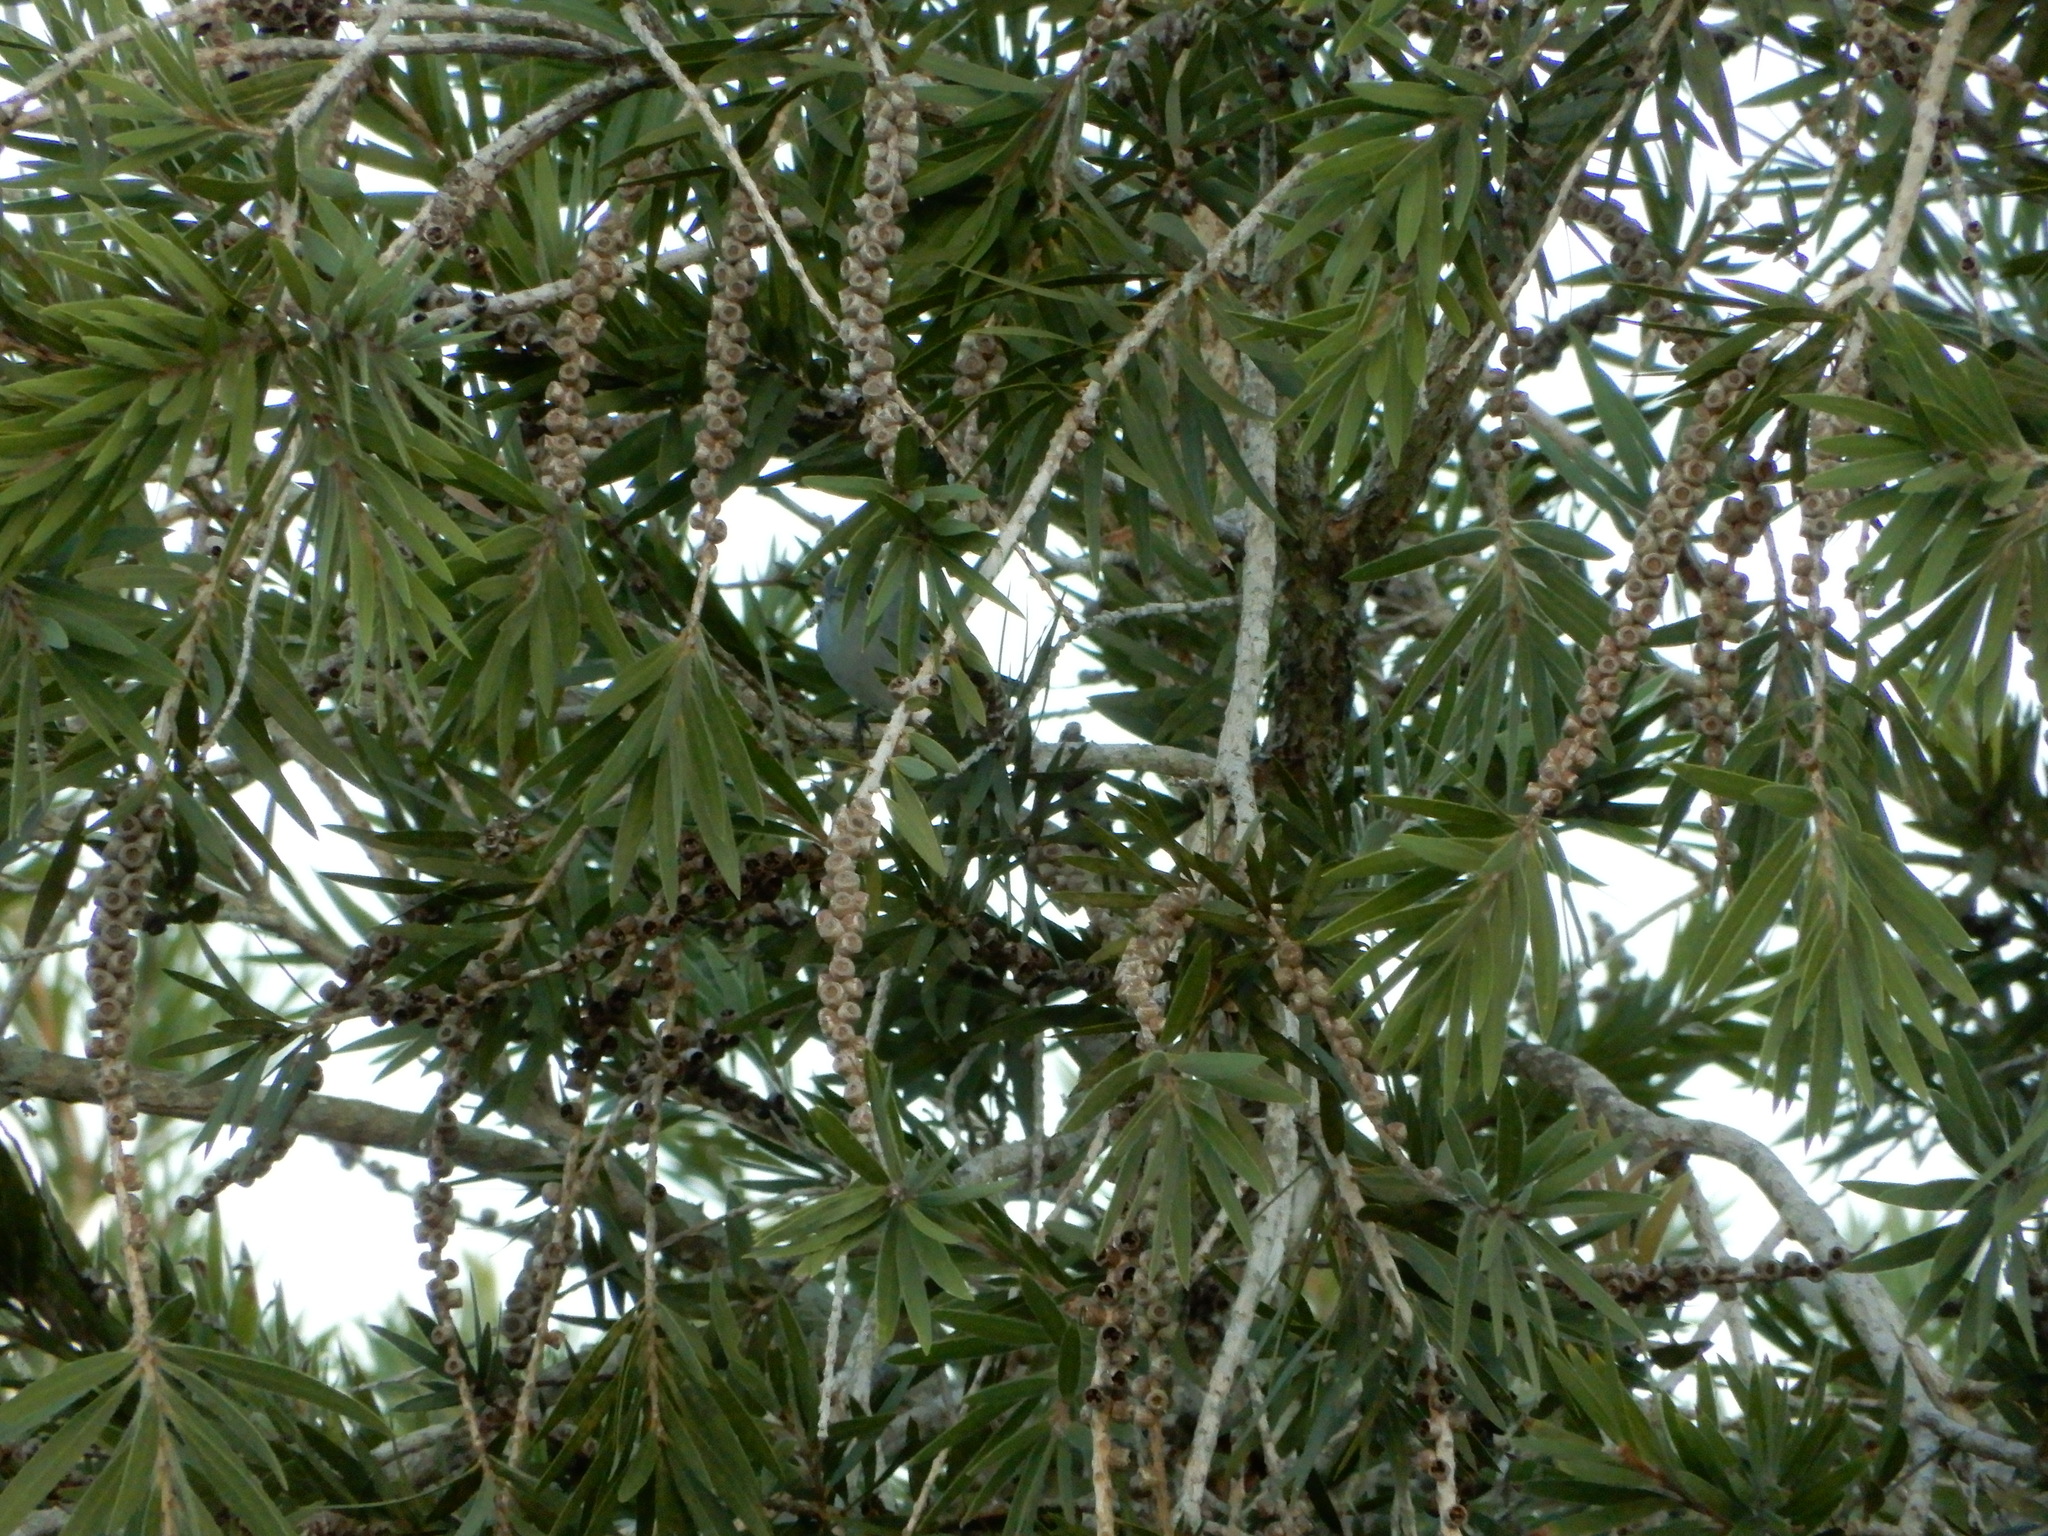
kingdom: Animalia
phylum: Chordata
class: Aves
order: Passeriformes
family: Polioptilidae
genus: Polioptila
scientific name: Polioptila caerulea
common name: Blue-gray gnatcatcher
